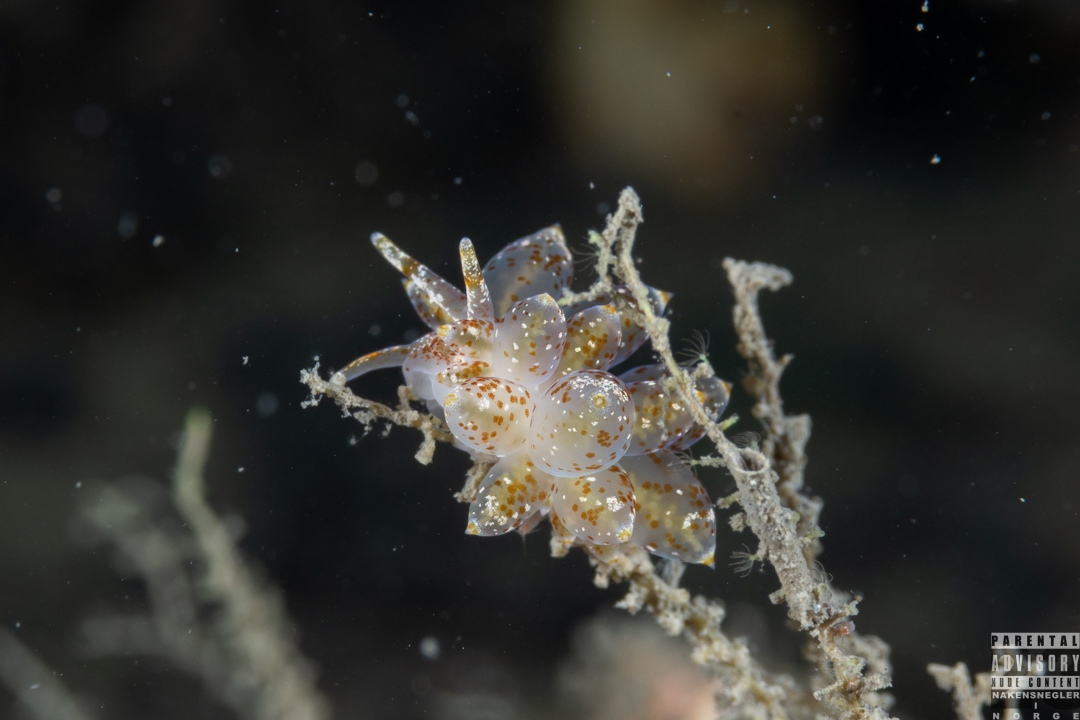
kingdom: Animalia
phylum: Mollusca
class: Gastropoda
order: Nudibranchia
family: Eubranchidae
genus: Amphorina
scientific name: Amphorina pallida
